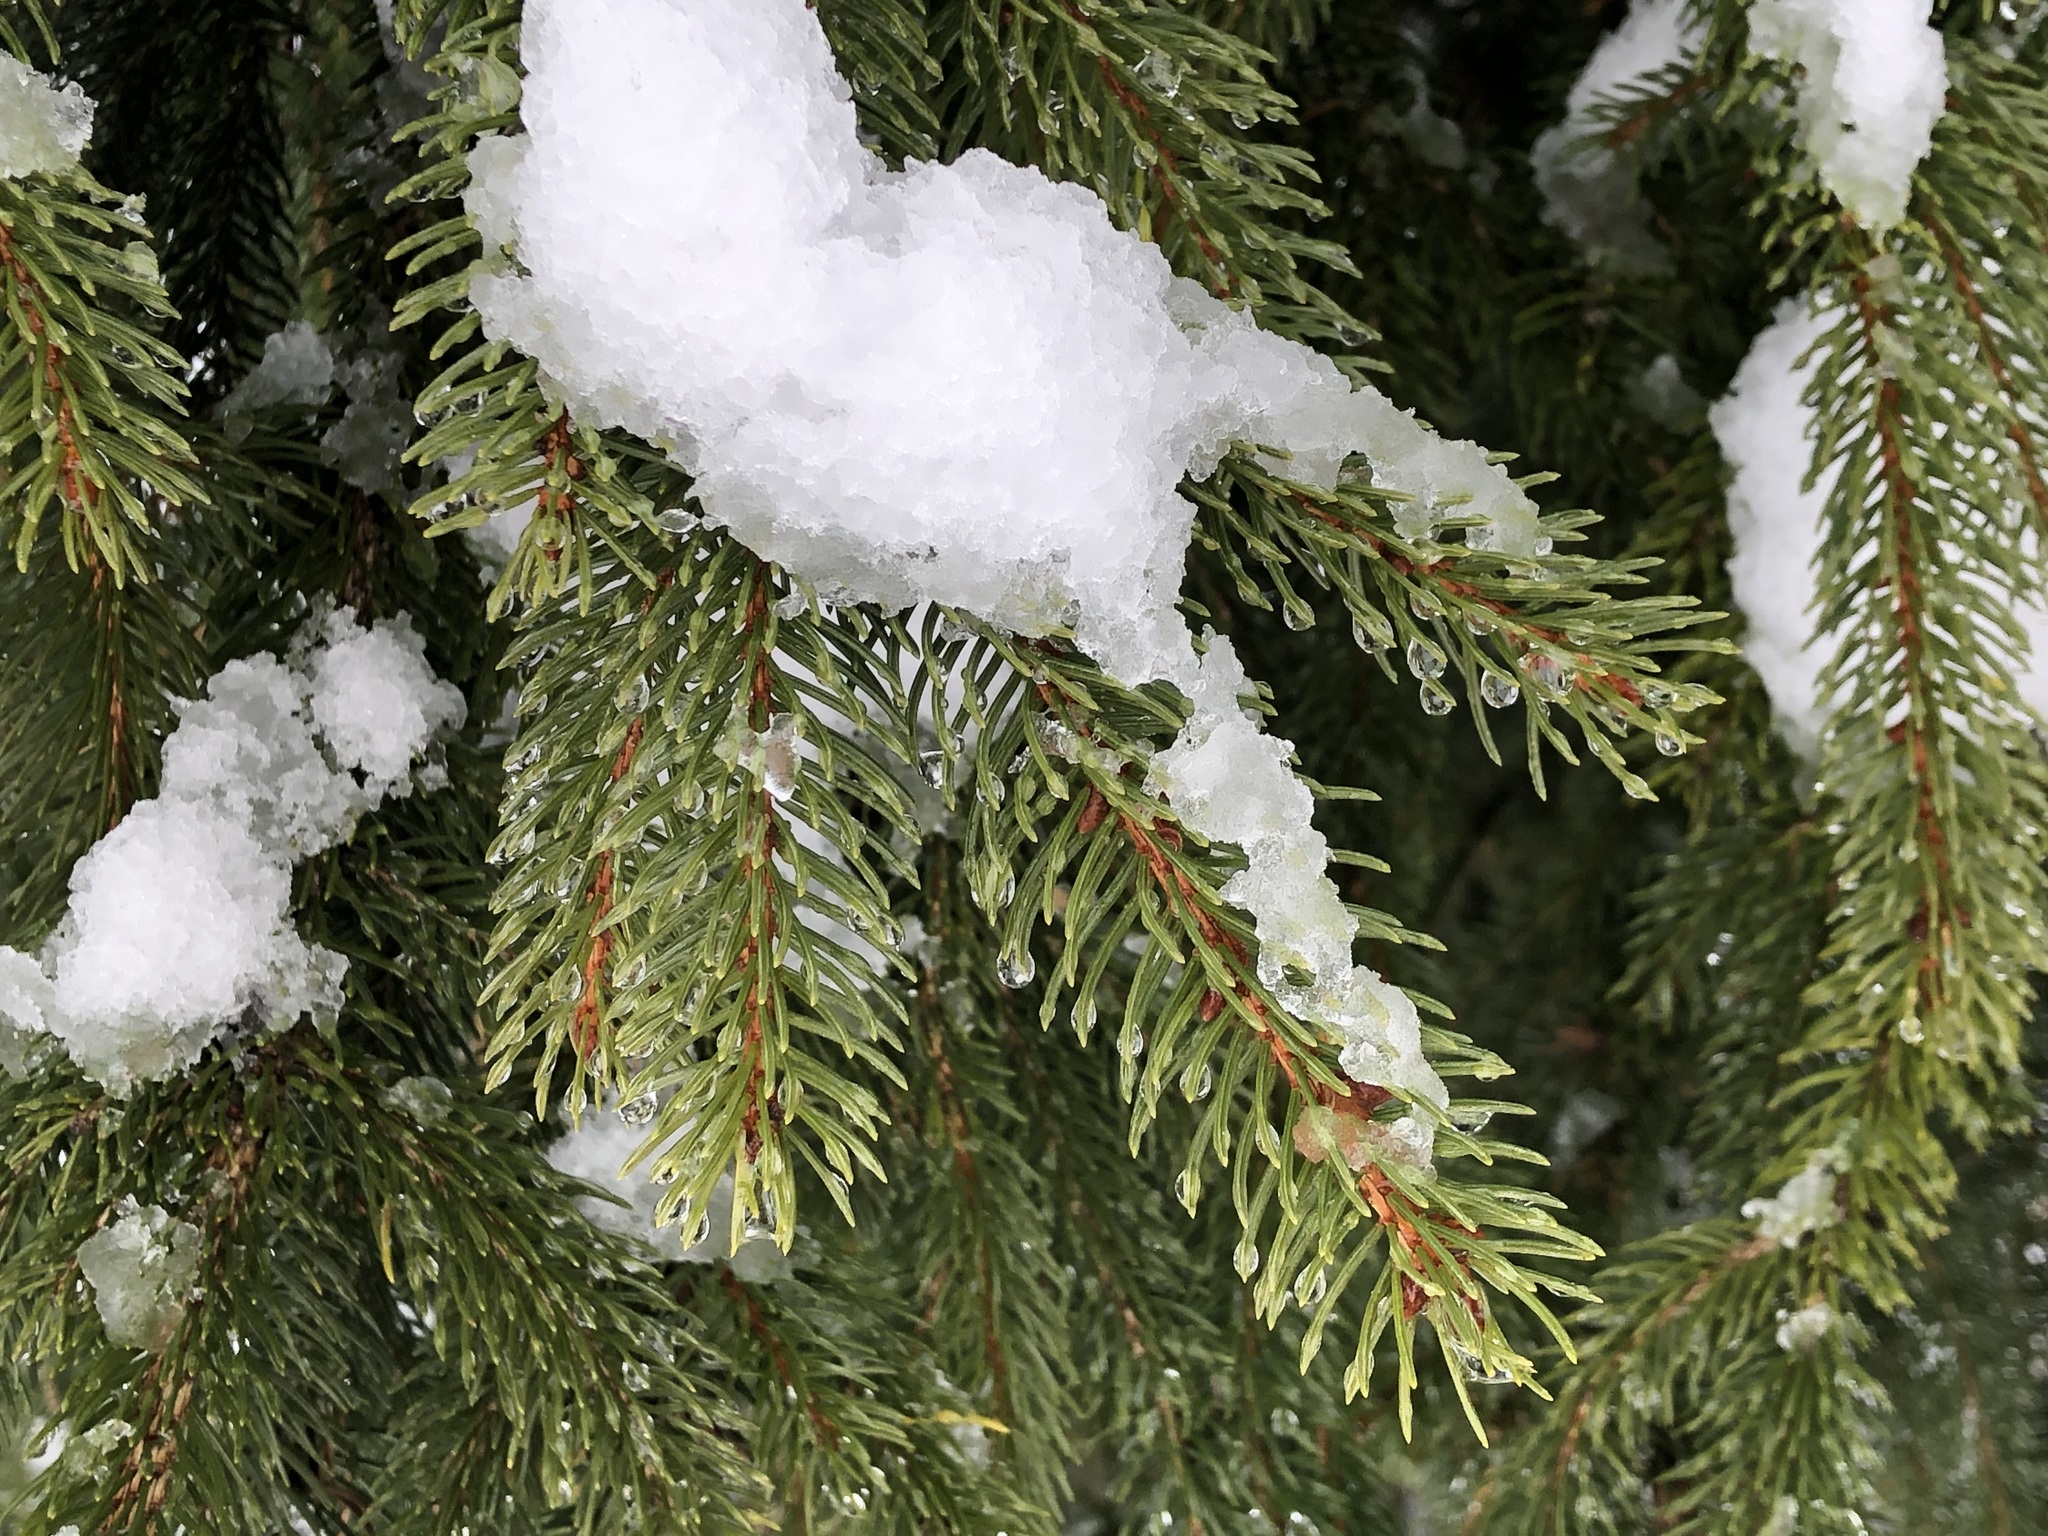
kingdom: Plantae
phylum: Tracheophyta
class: Pinopsida
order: Pinales
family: Pinaceae
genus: Picea
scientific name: Picea abies
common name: Norway spruce
